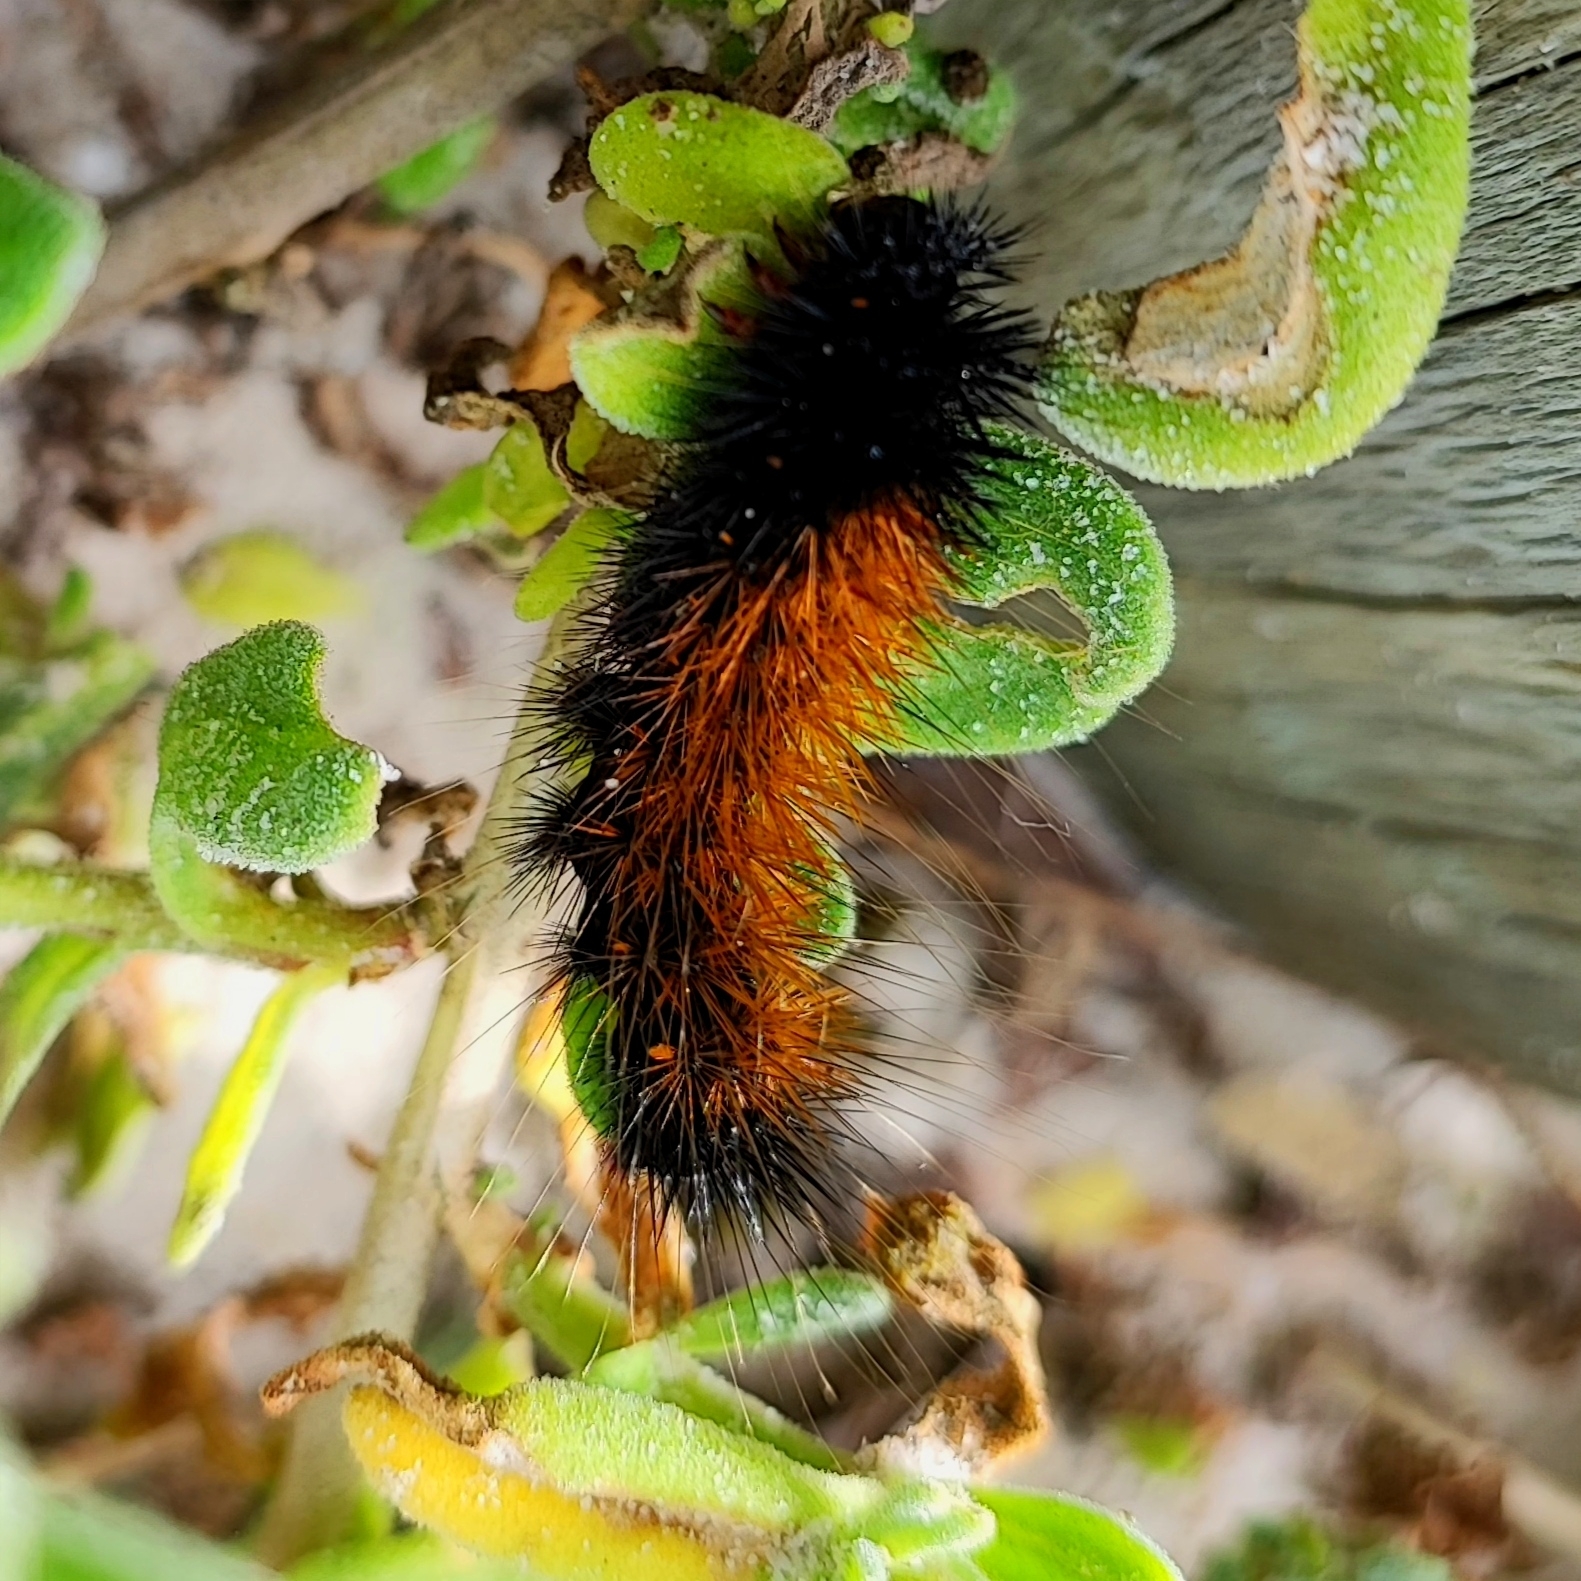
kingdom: Animalia
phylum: Arthropoda
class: Insecta
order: Lepidoptera
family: Erebidae
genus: Rhodogastria
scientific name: Rhodogastria amasis
